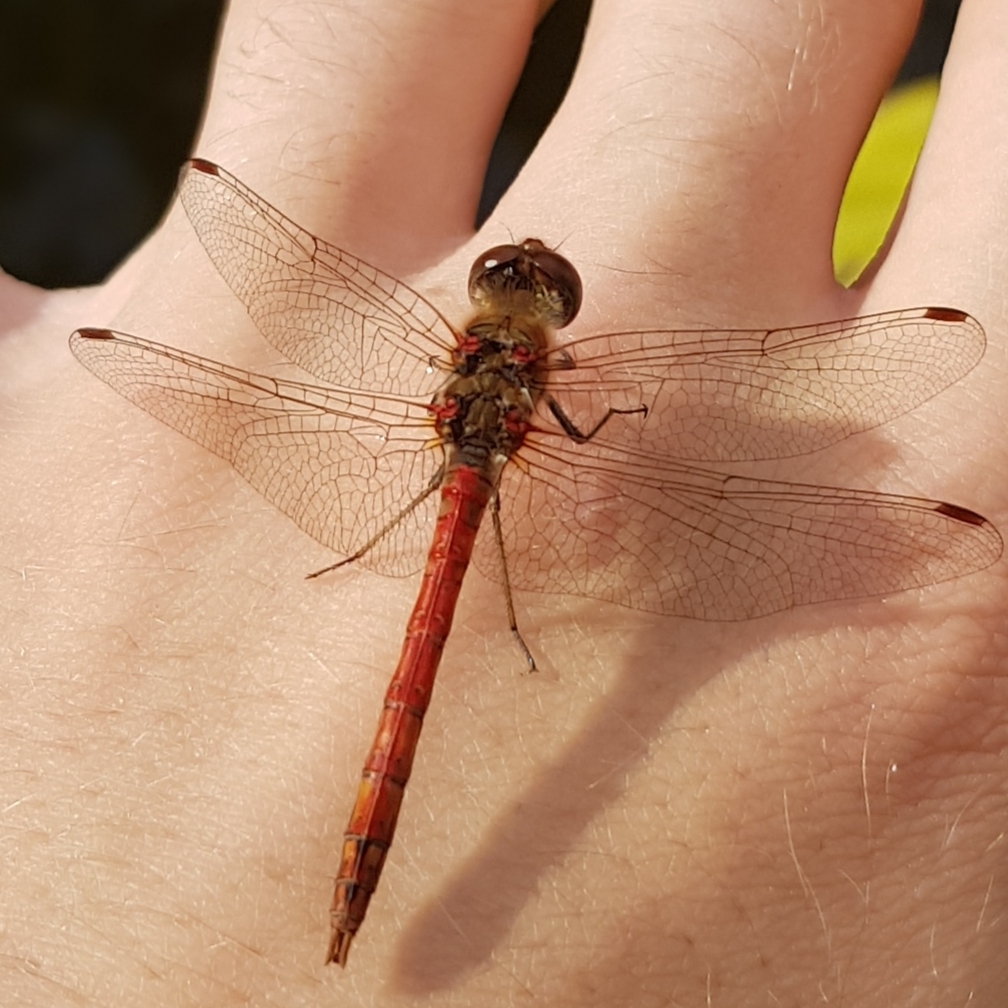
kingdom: Animalia
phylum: Arthropoda
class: Insecta
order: Odonata
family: Libellulidae
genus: Sympetrum
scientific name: Sympetrum striolatum
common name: Common darter
